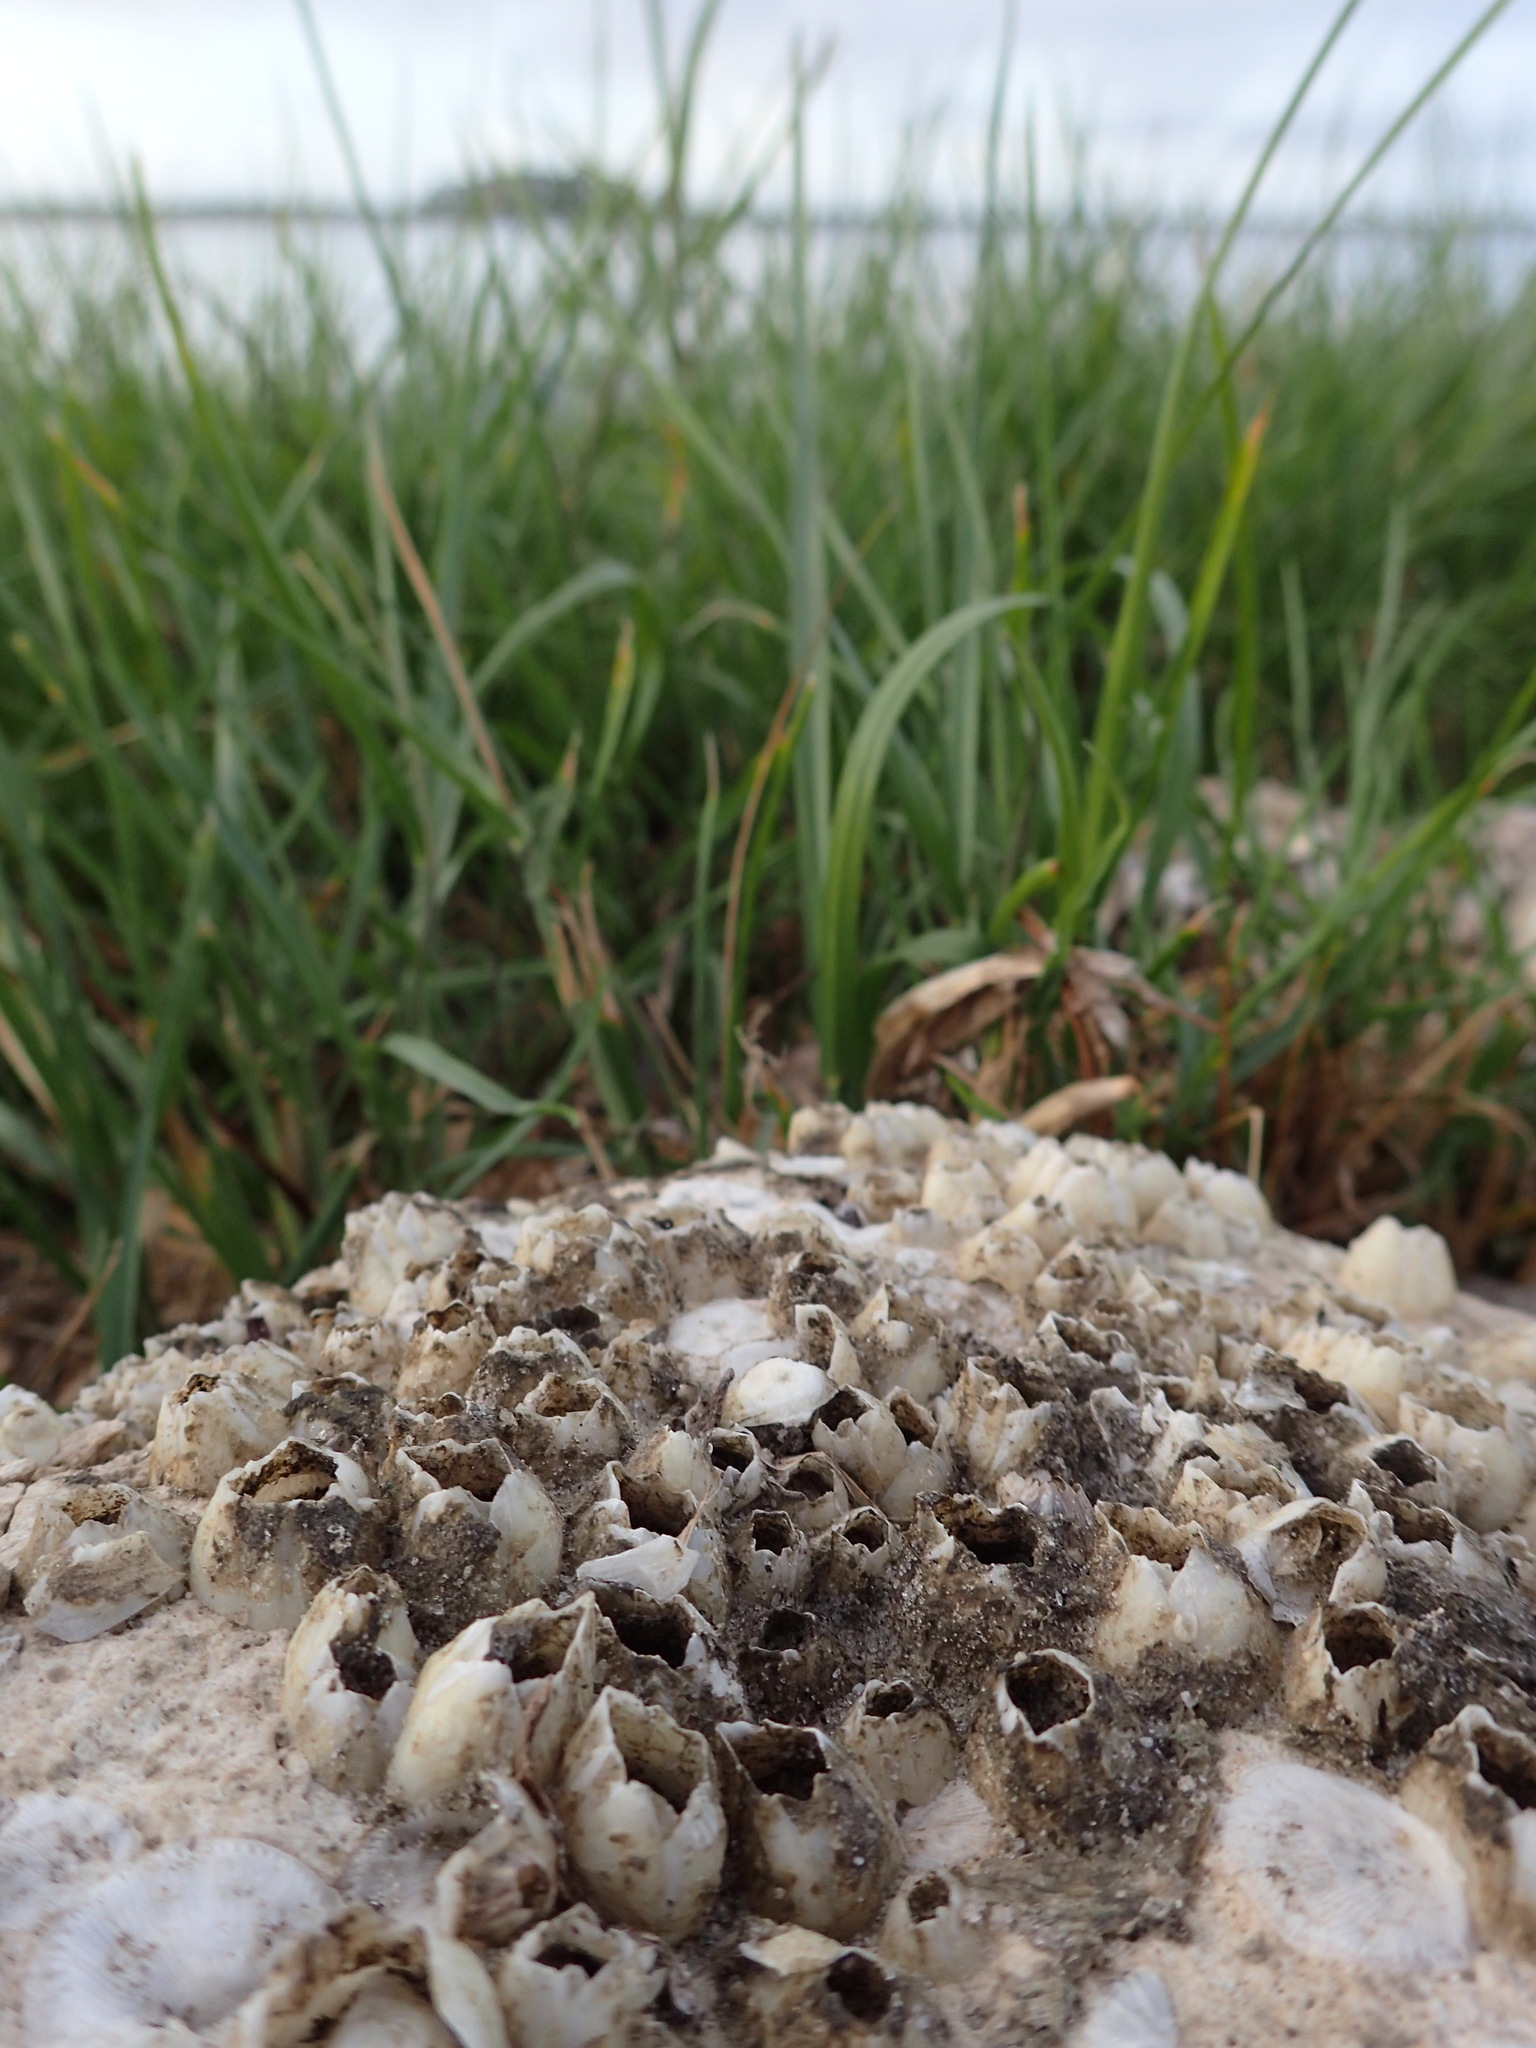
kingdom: Animalia
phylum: Arthropoda
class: Maxillopoda
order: Sessilia
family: Balanidae
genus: Amphibalanus
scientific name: Amphibalanus eburneus
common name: Ivory barnacle
